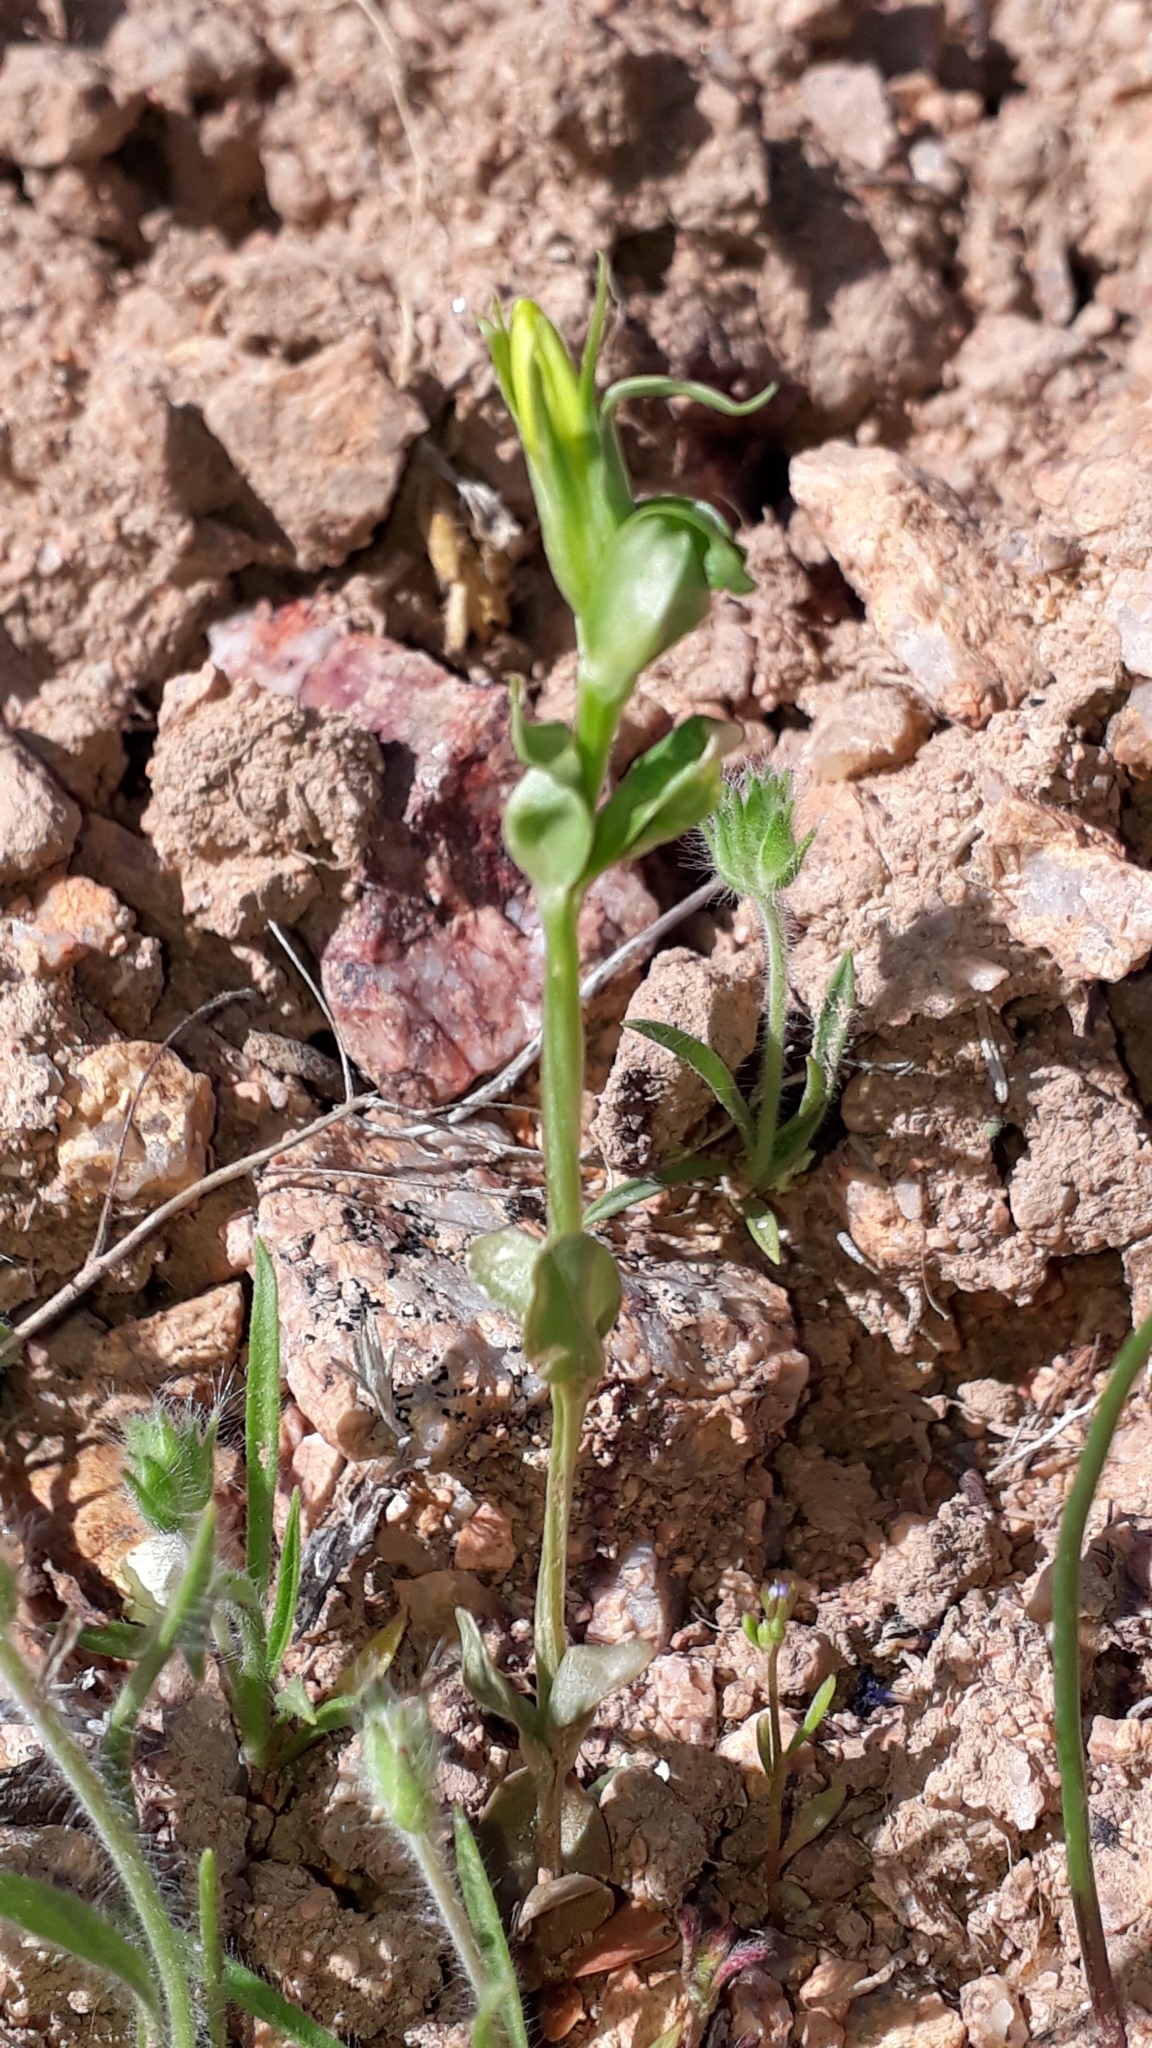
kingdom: Plantae
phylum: Tracheophyta
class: Magnoliopsida
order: Gentianales
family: Gentianaceae
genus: Centaurium
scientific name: Centaurium maritimum
